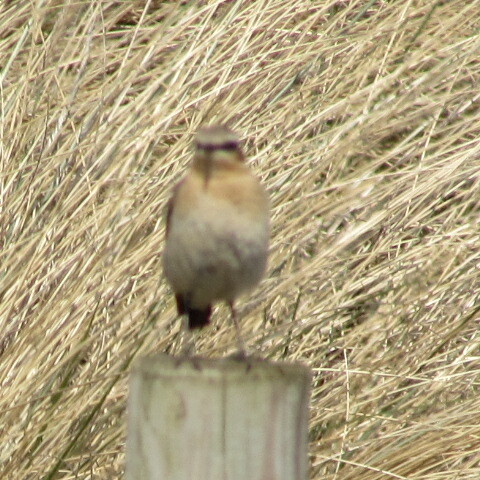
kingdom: Animalia
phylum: Chordata
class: Aves
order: Passeriformes
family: Muscicapidae
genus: Oenanthe
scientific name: Oenanthe oenanthe
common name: Northern wheatear
